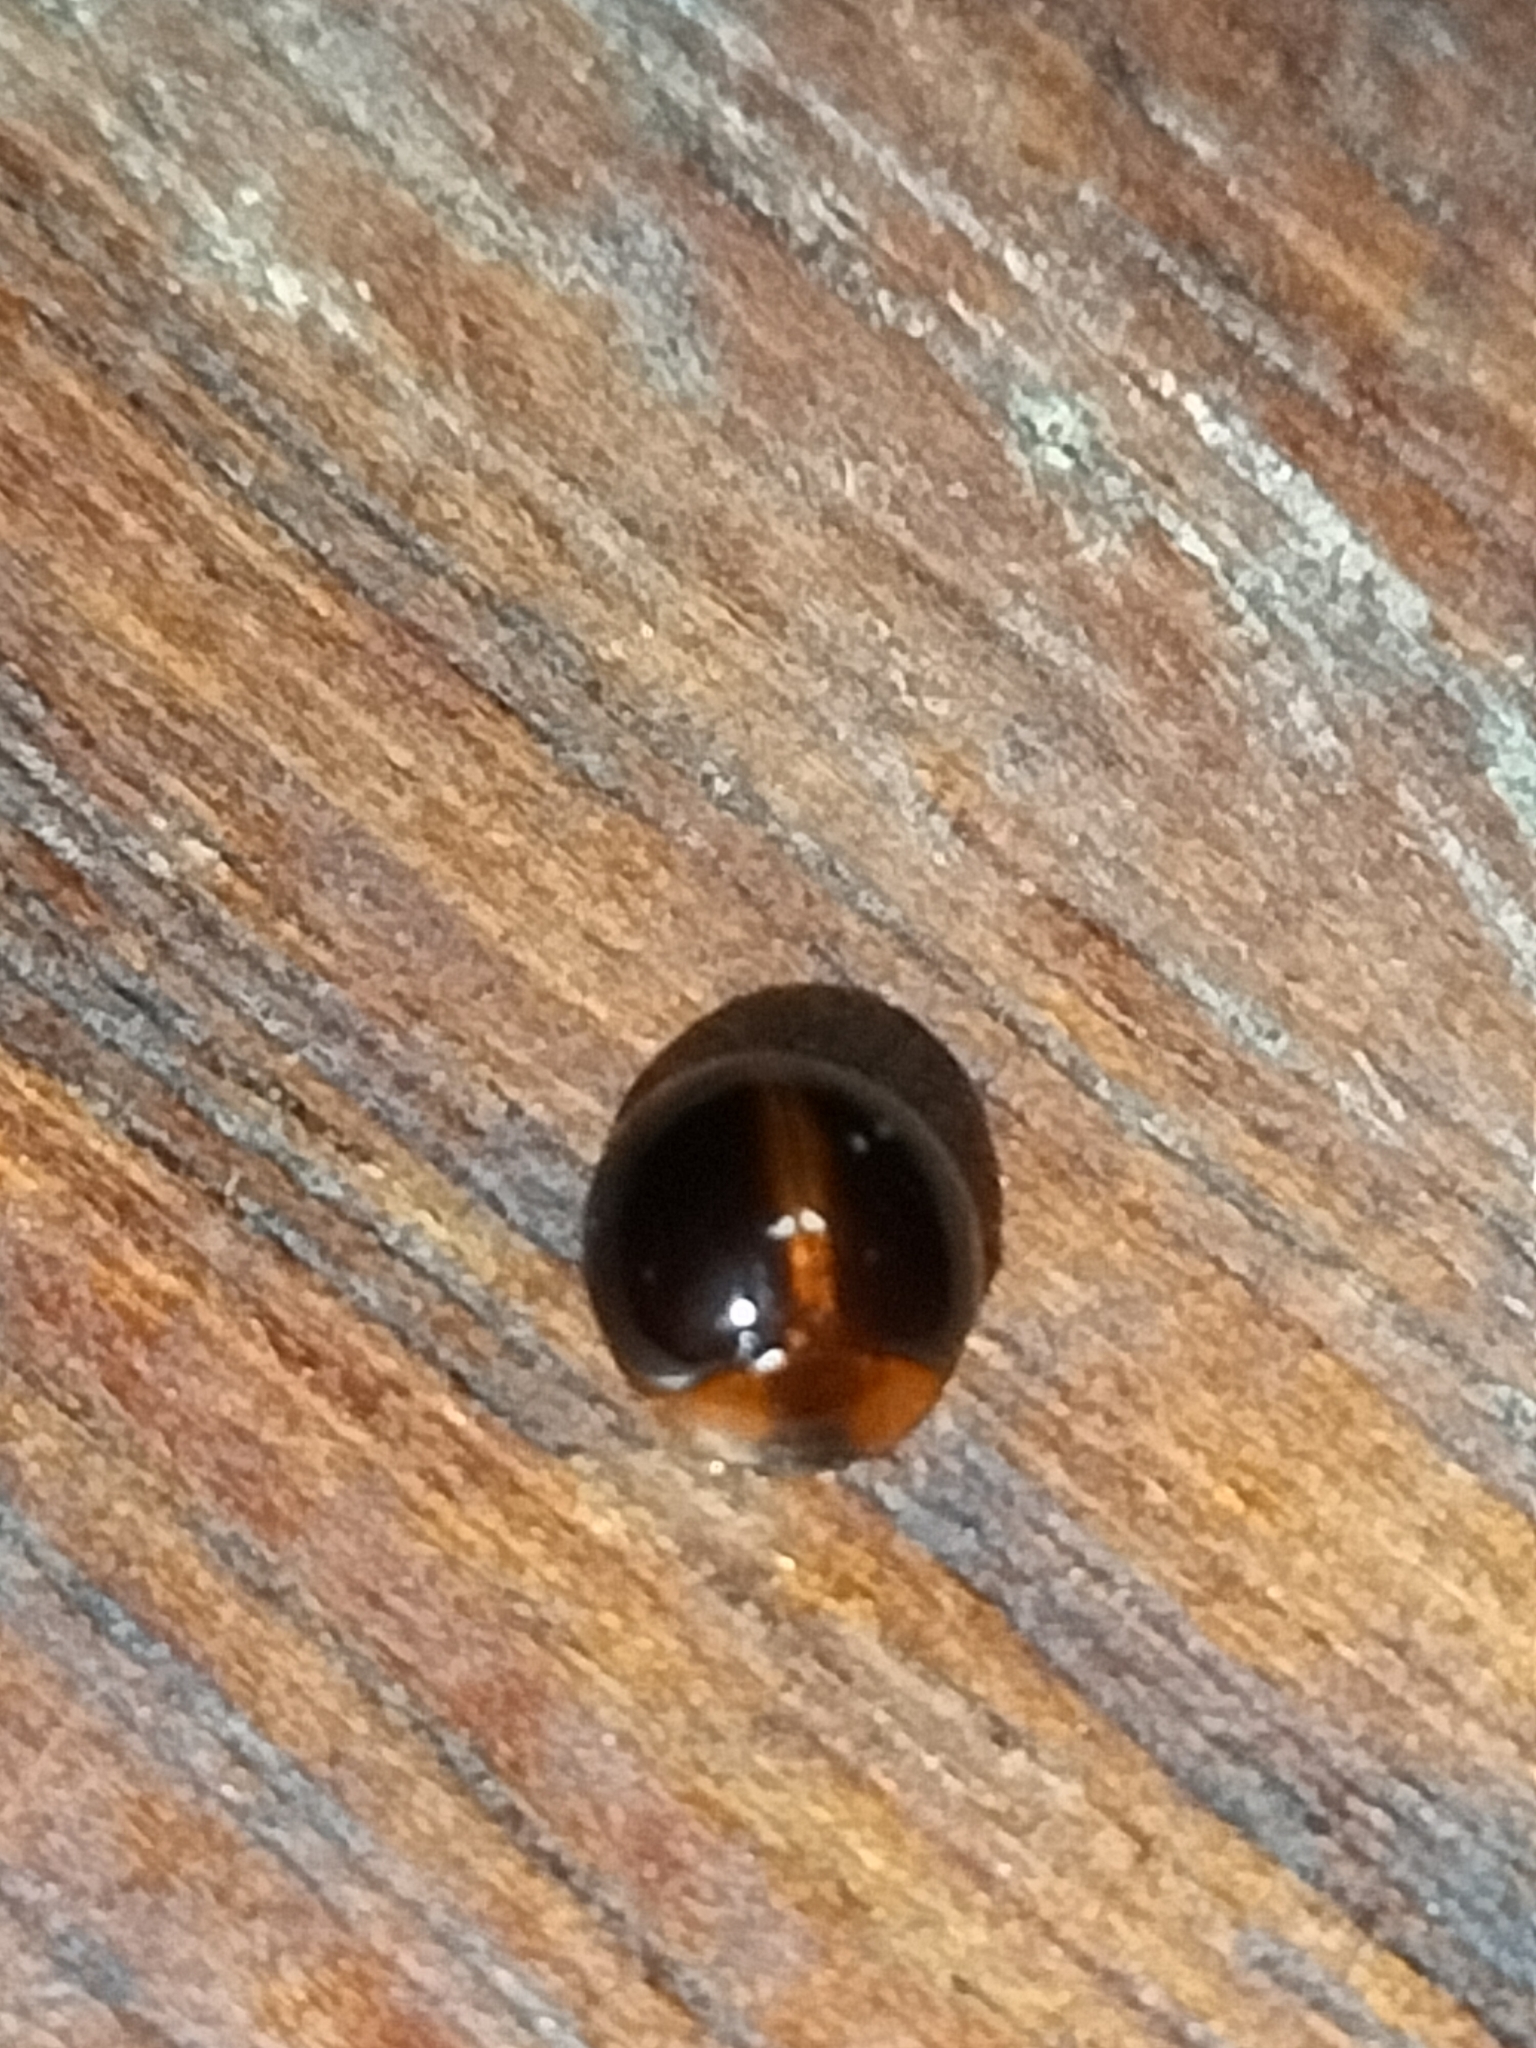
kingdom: Animalia
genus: Leiochrodes
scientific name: Leiochrodes
